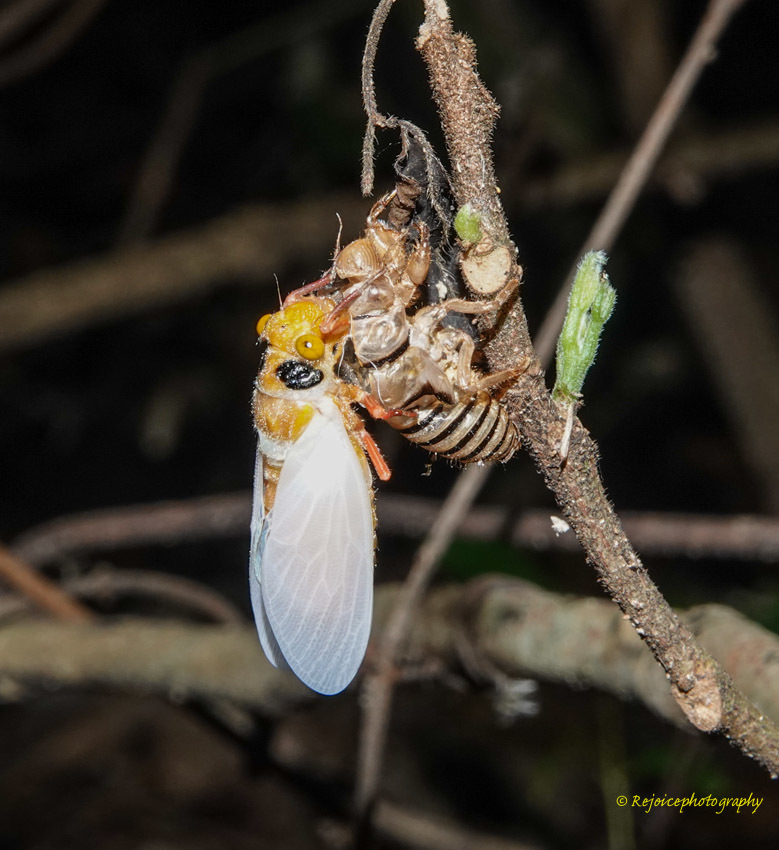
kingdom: Animalia
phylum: Arthropoda
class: Insecta
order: Hemiptera
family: Cicadidae
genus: Huechys
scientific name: Huechys fusca
